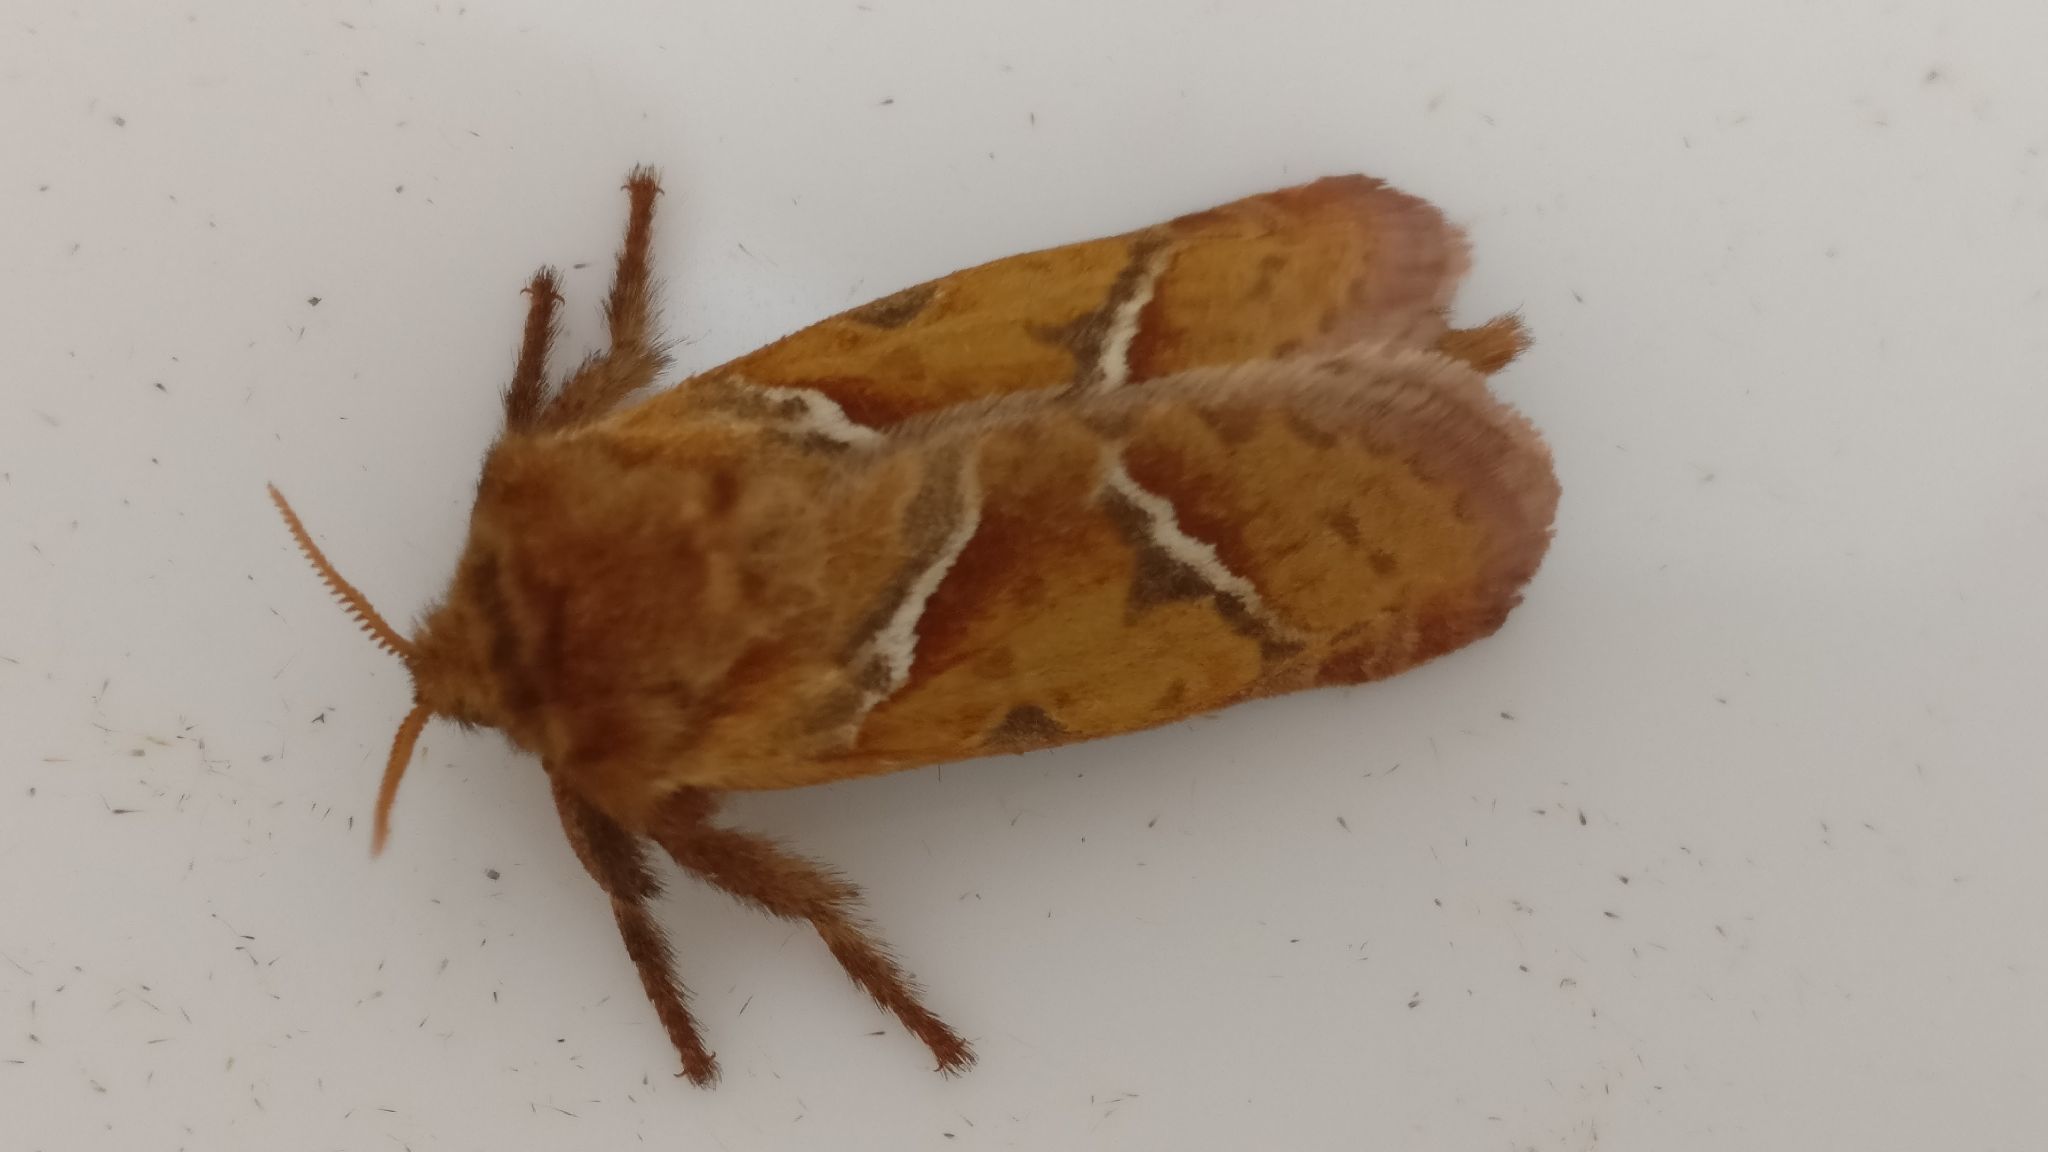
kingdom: Animalia
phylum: Arthropoda
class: Insecta
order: Lepidoptera
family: Hepialidae
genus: Triodia
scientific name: Triodia sylvina
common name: Orange swift
